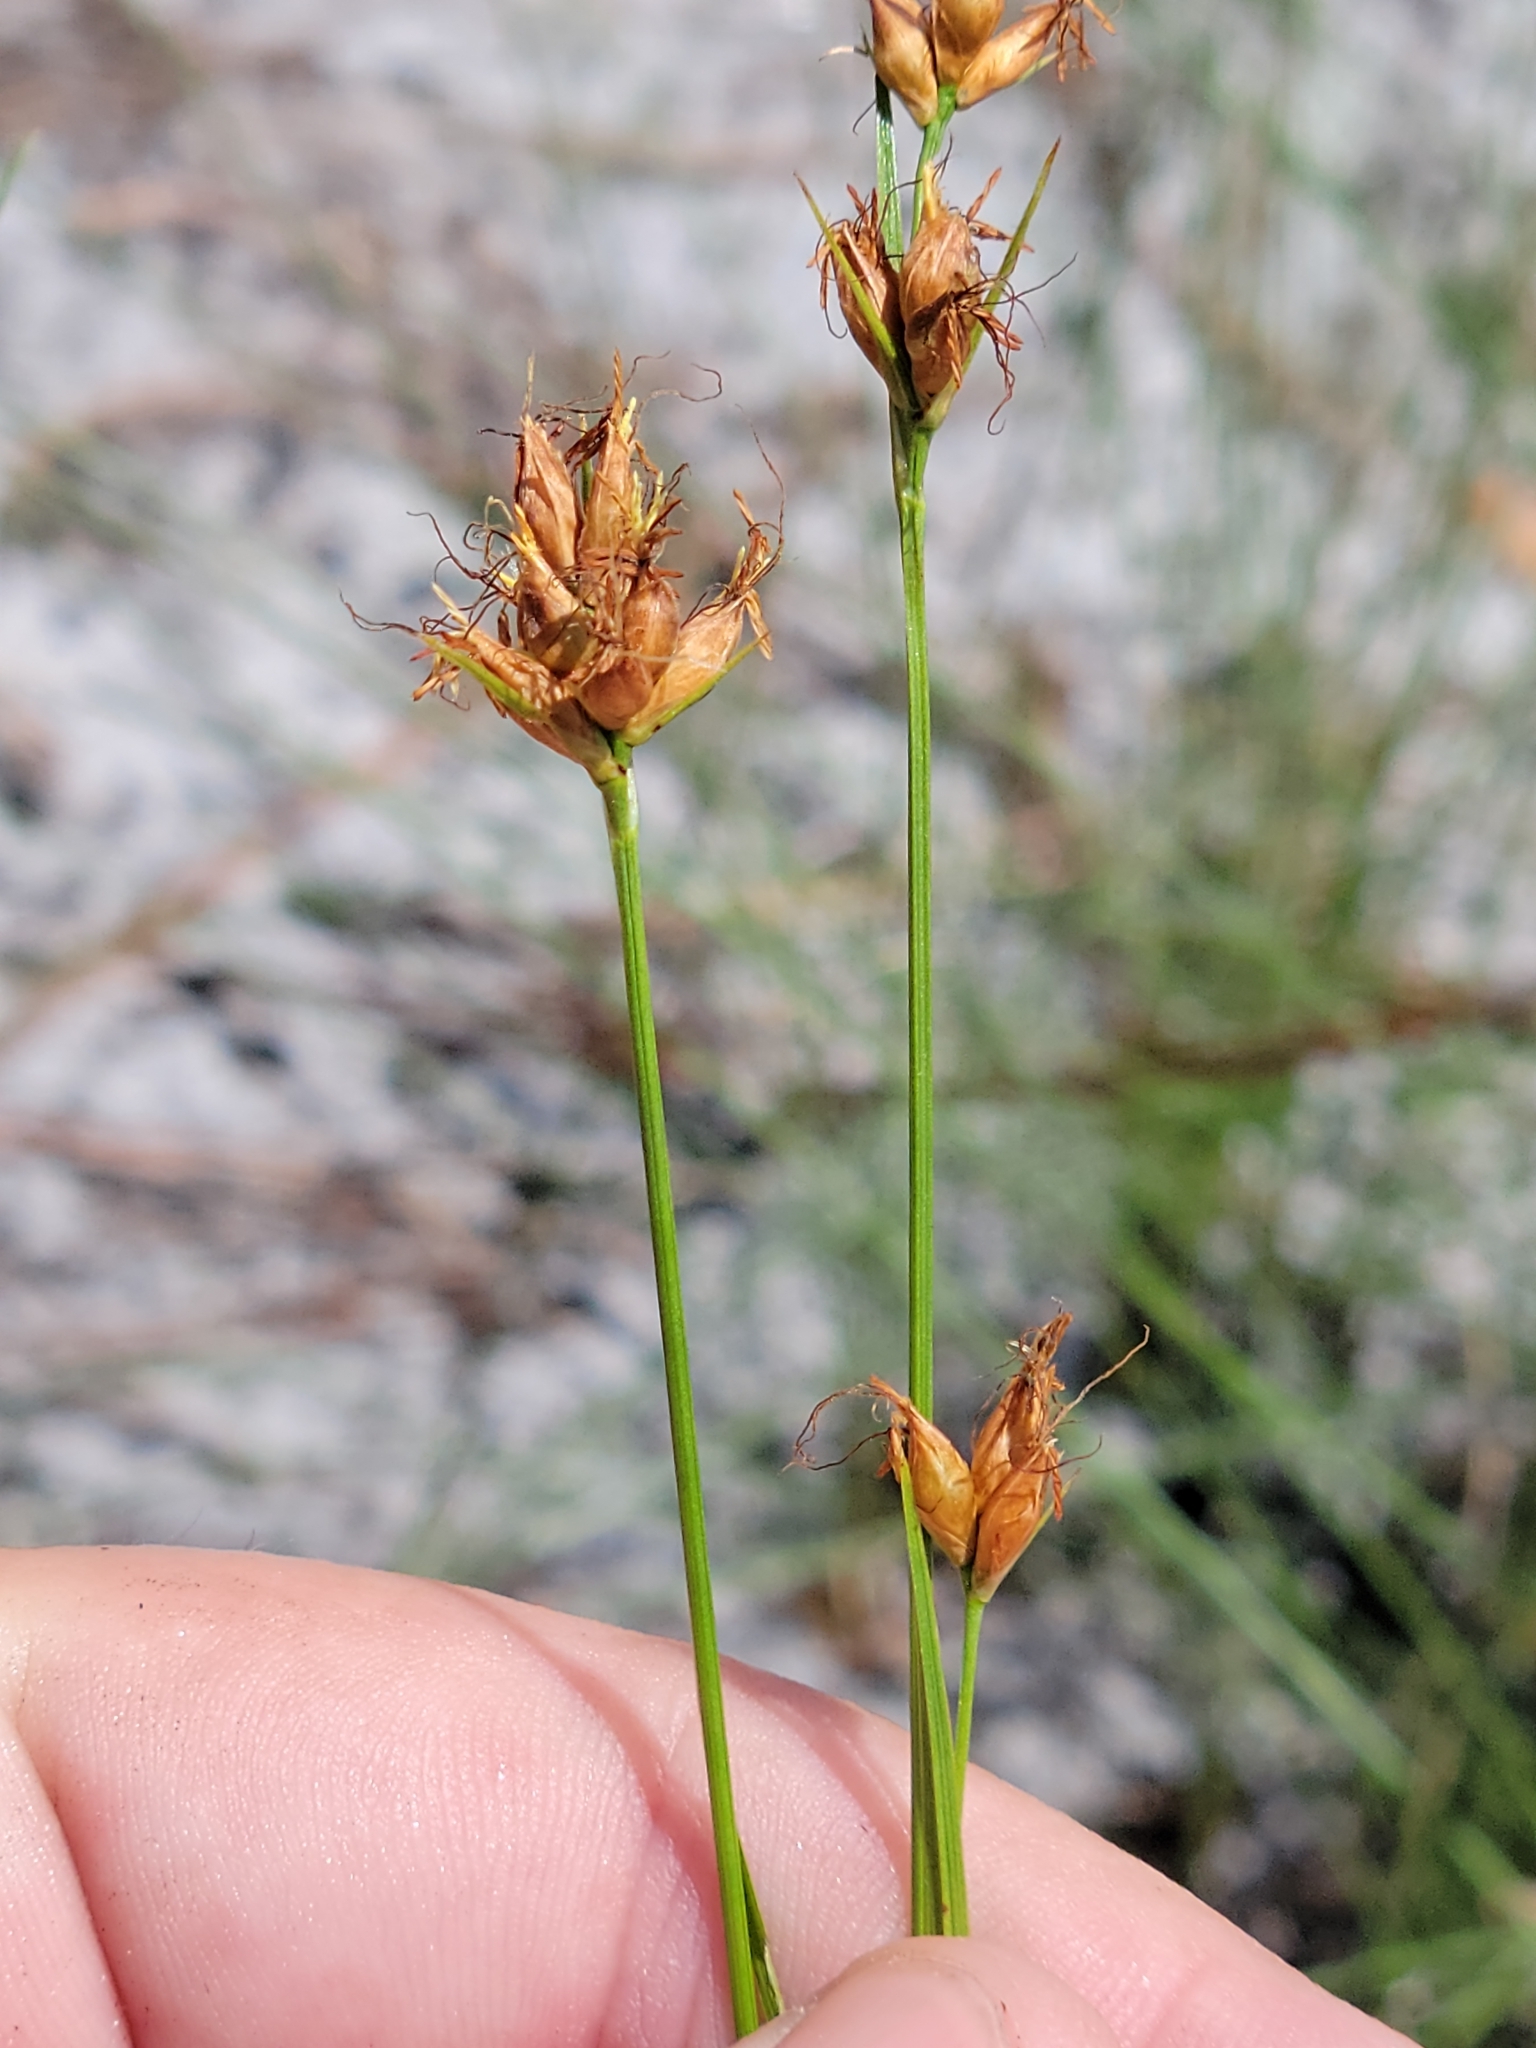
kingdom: Plantae
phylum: Tracheophyta
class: Liliopsida
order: Poales
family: Cyperaceae
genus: Rhynchospora
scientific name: Rhynchospora grayi
